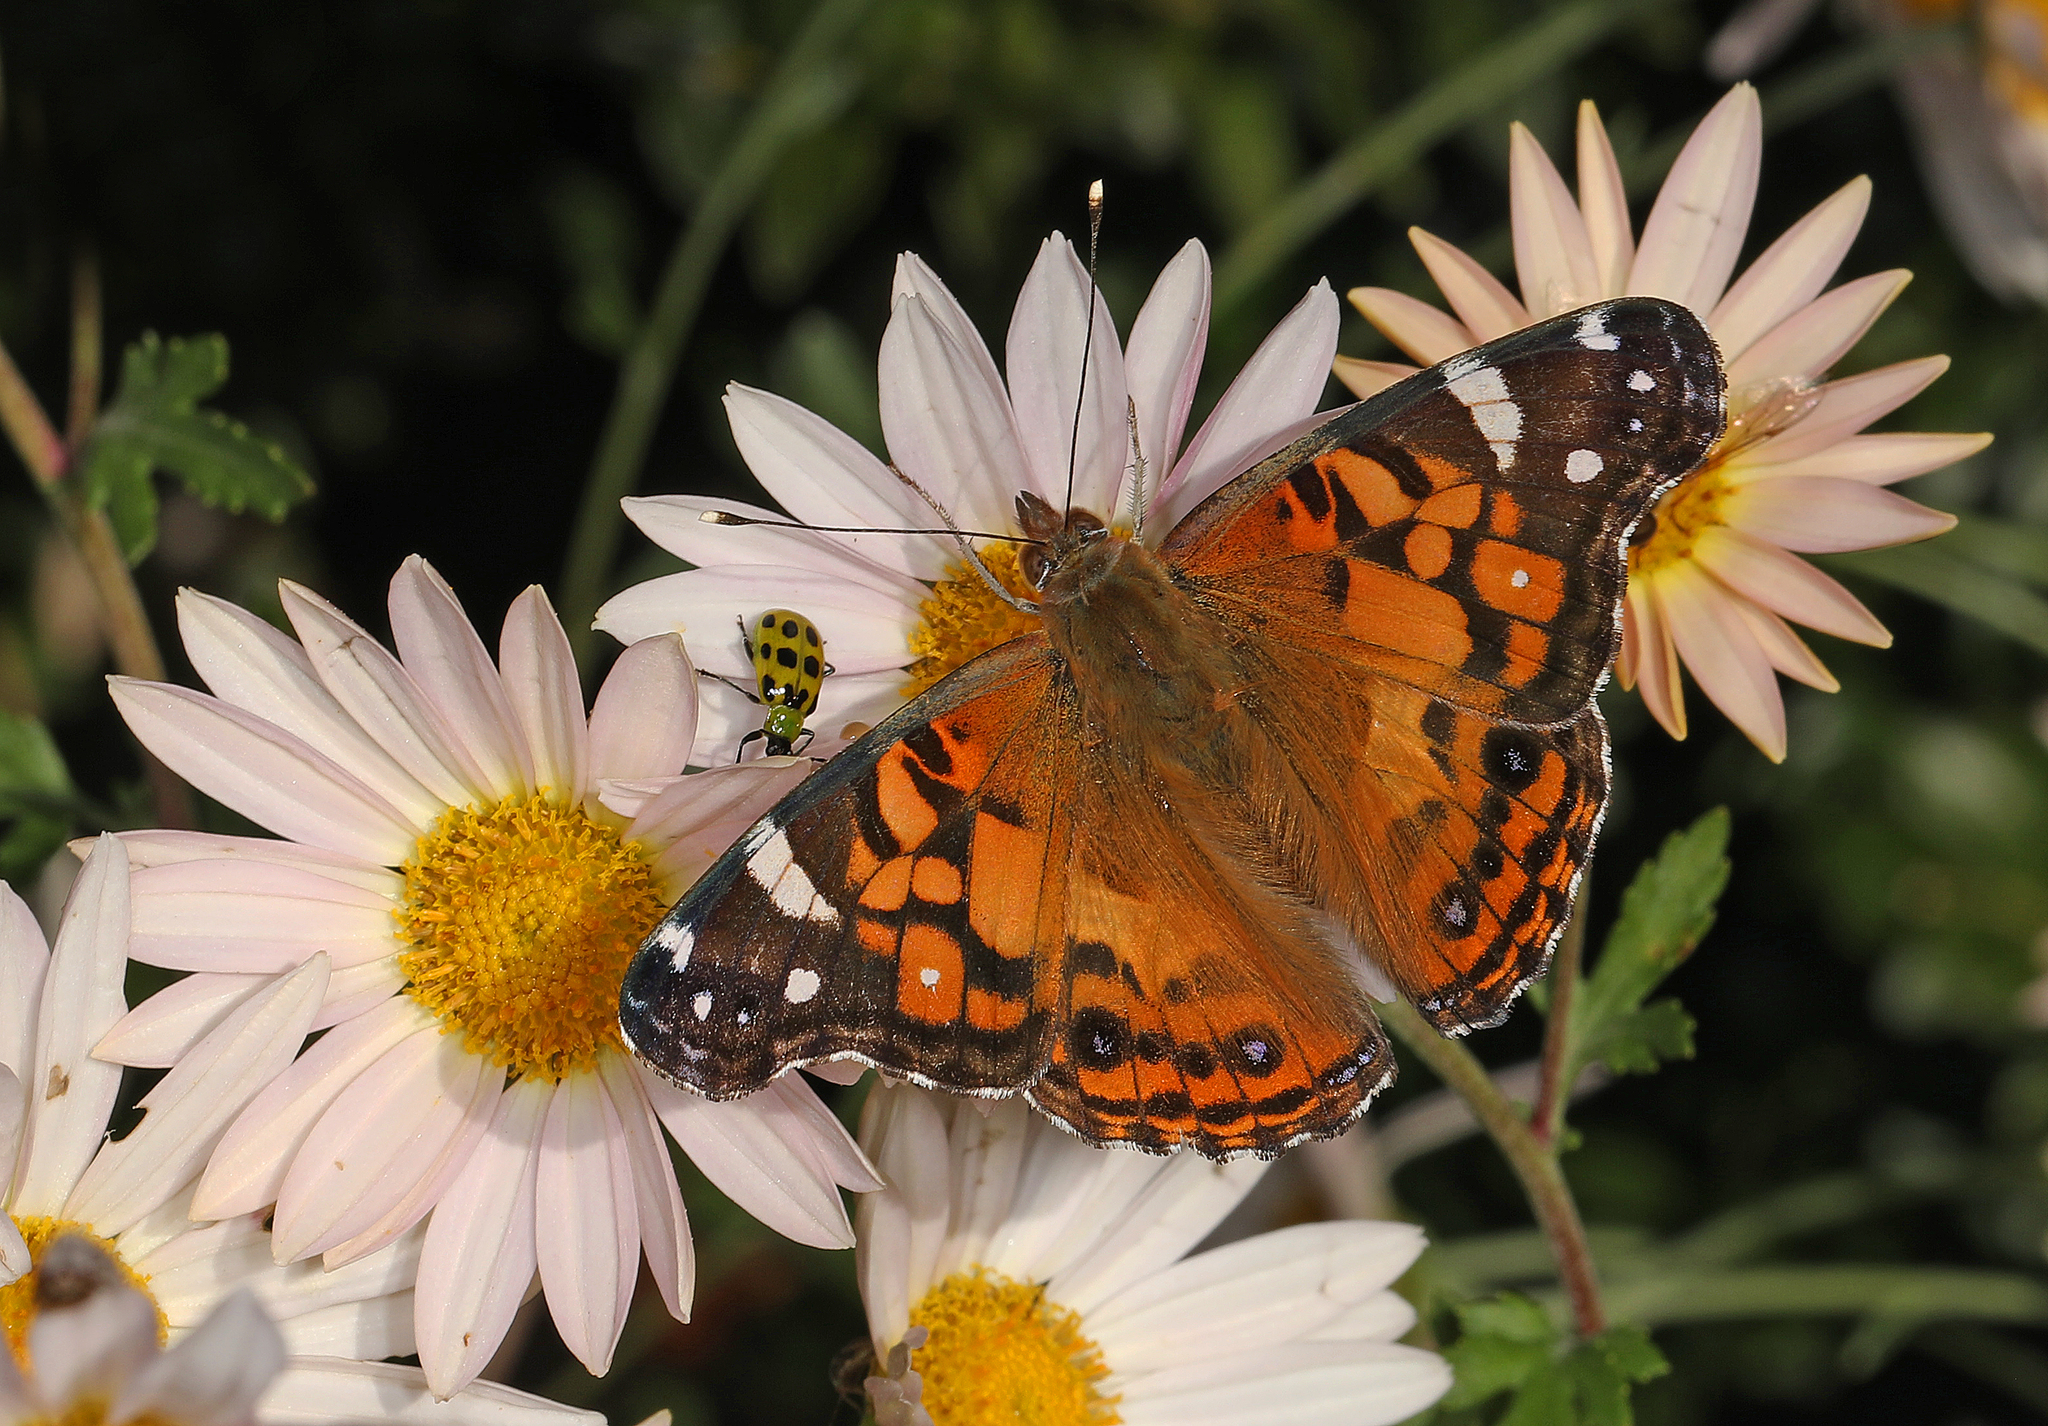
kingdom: Animalia
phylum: Arthropoda
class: Insecta
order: Lepidoptera
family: Nymphalidae
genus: Vanessa
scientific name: Vanessa virginiensis
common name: American lady
